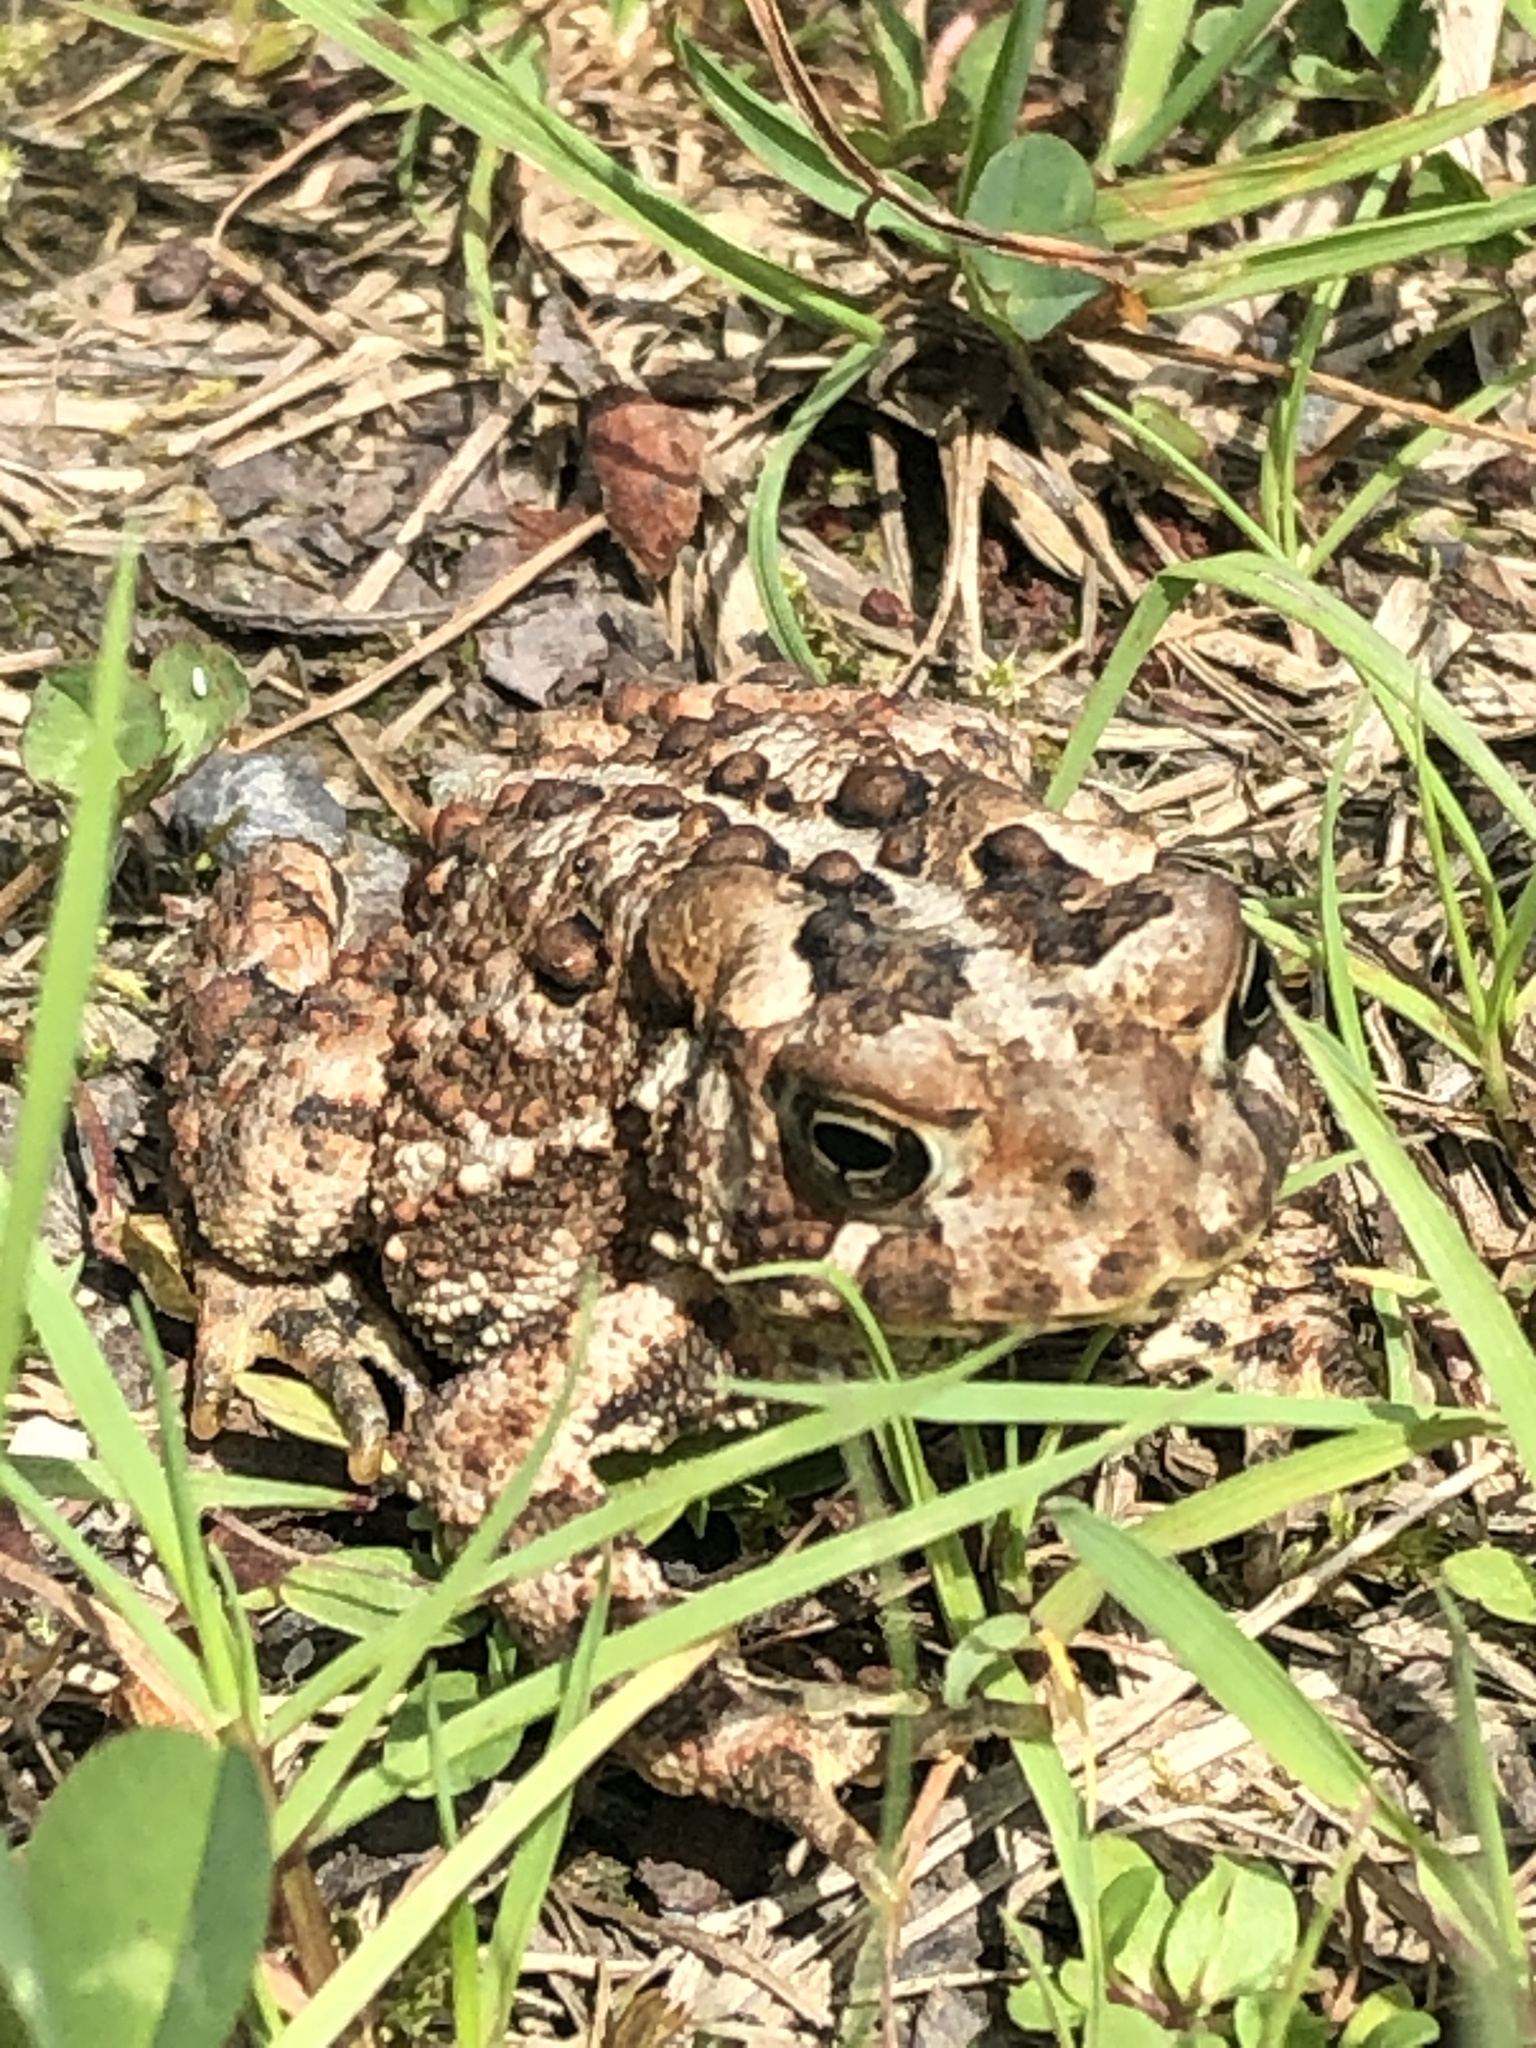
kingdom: Animalia
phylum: Chordata
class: Amphibia
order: Anura
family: Bufonidae
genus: Anaxyrus
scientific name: Anaxyrus americanus
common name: American toad
